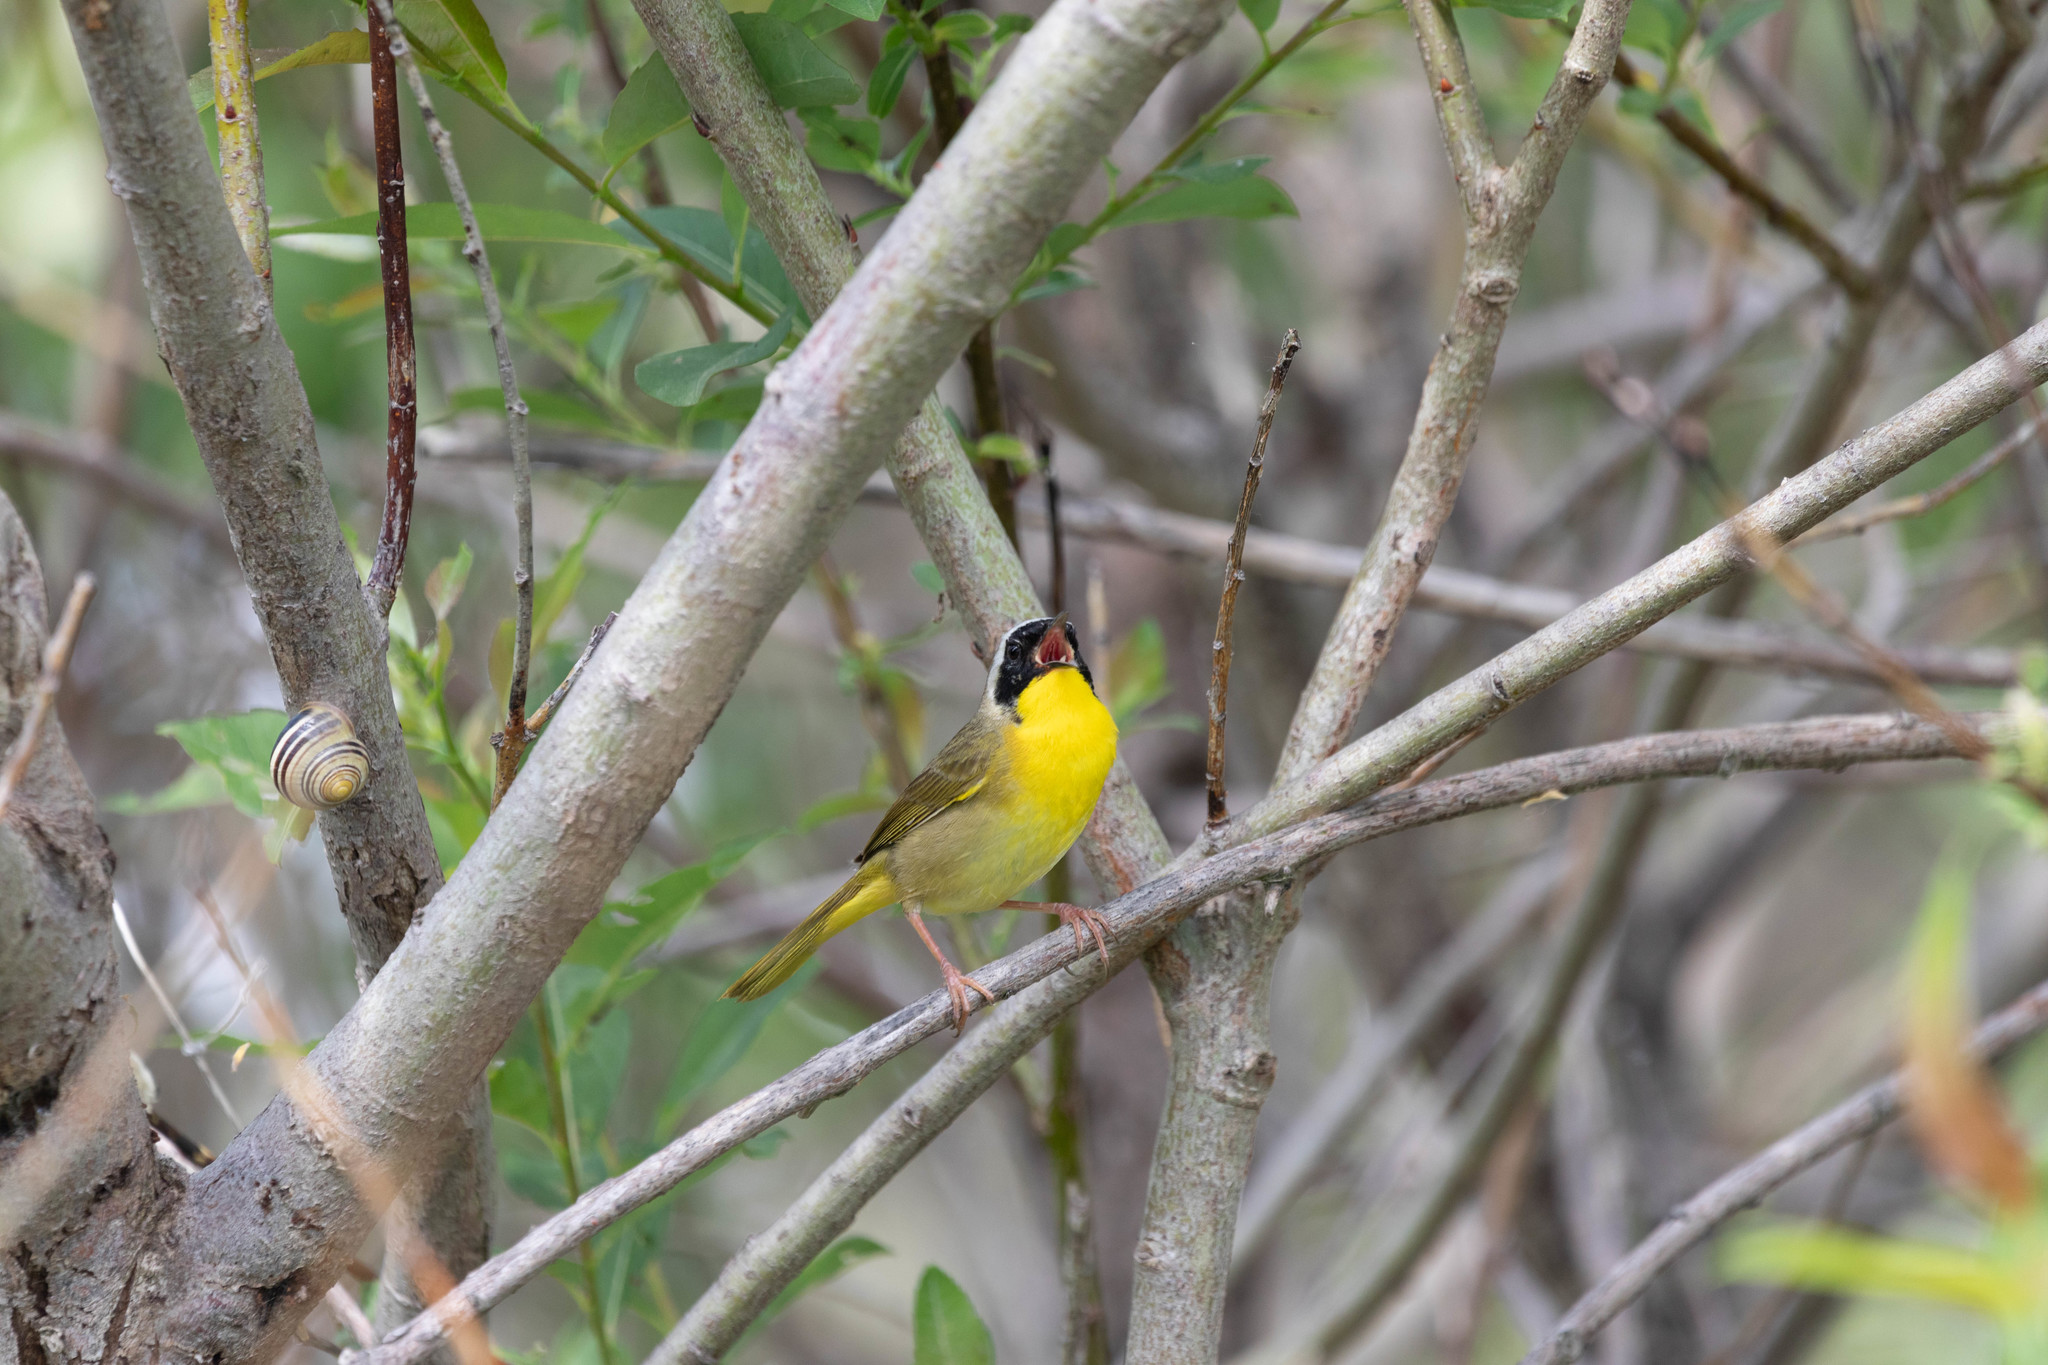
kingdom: Animalia
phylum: Chordata
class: Aves
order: Passeriformes
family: Parulidae
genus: Geothlypis
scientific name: Geothlypis trichas
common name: Common yellowthroat
